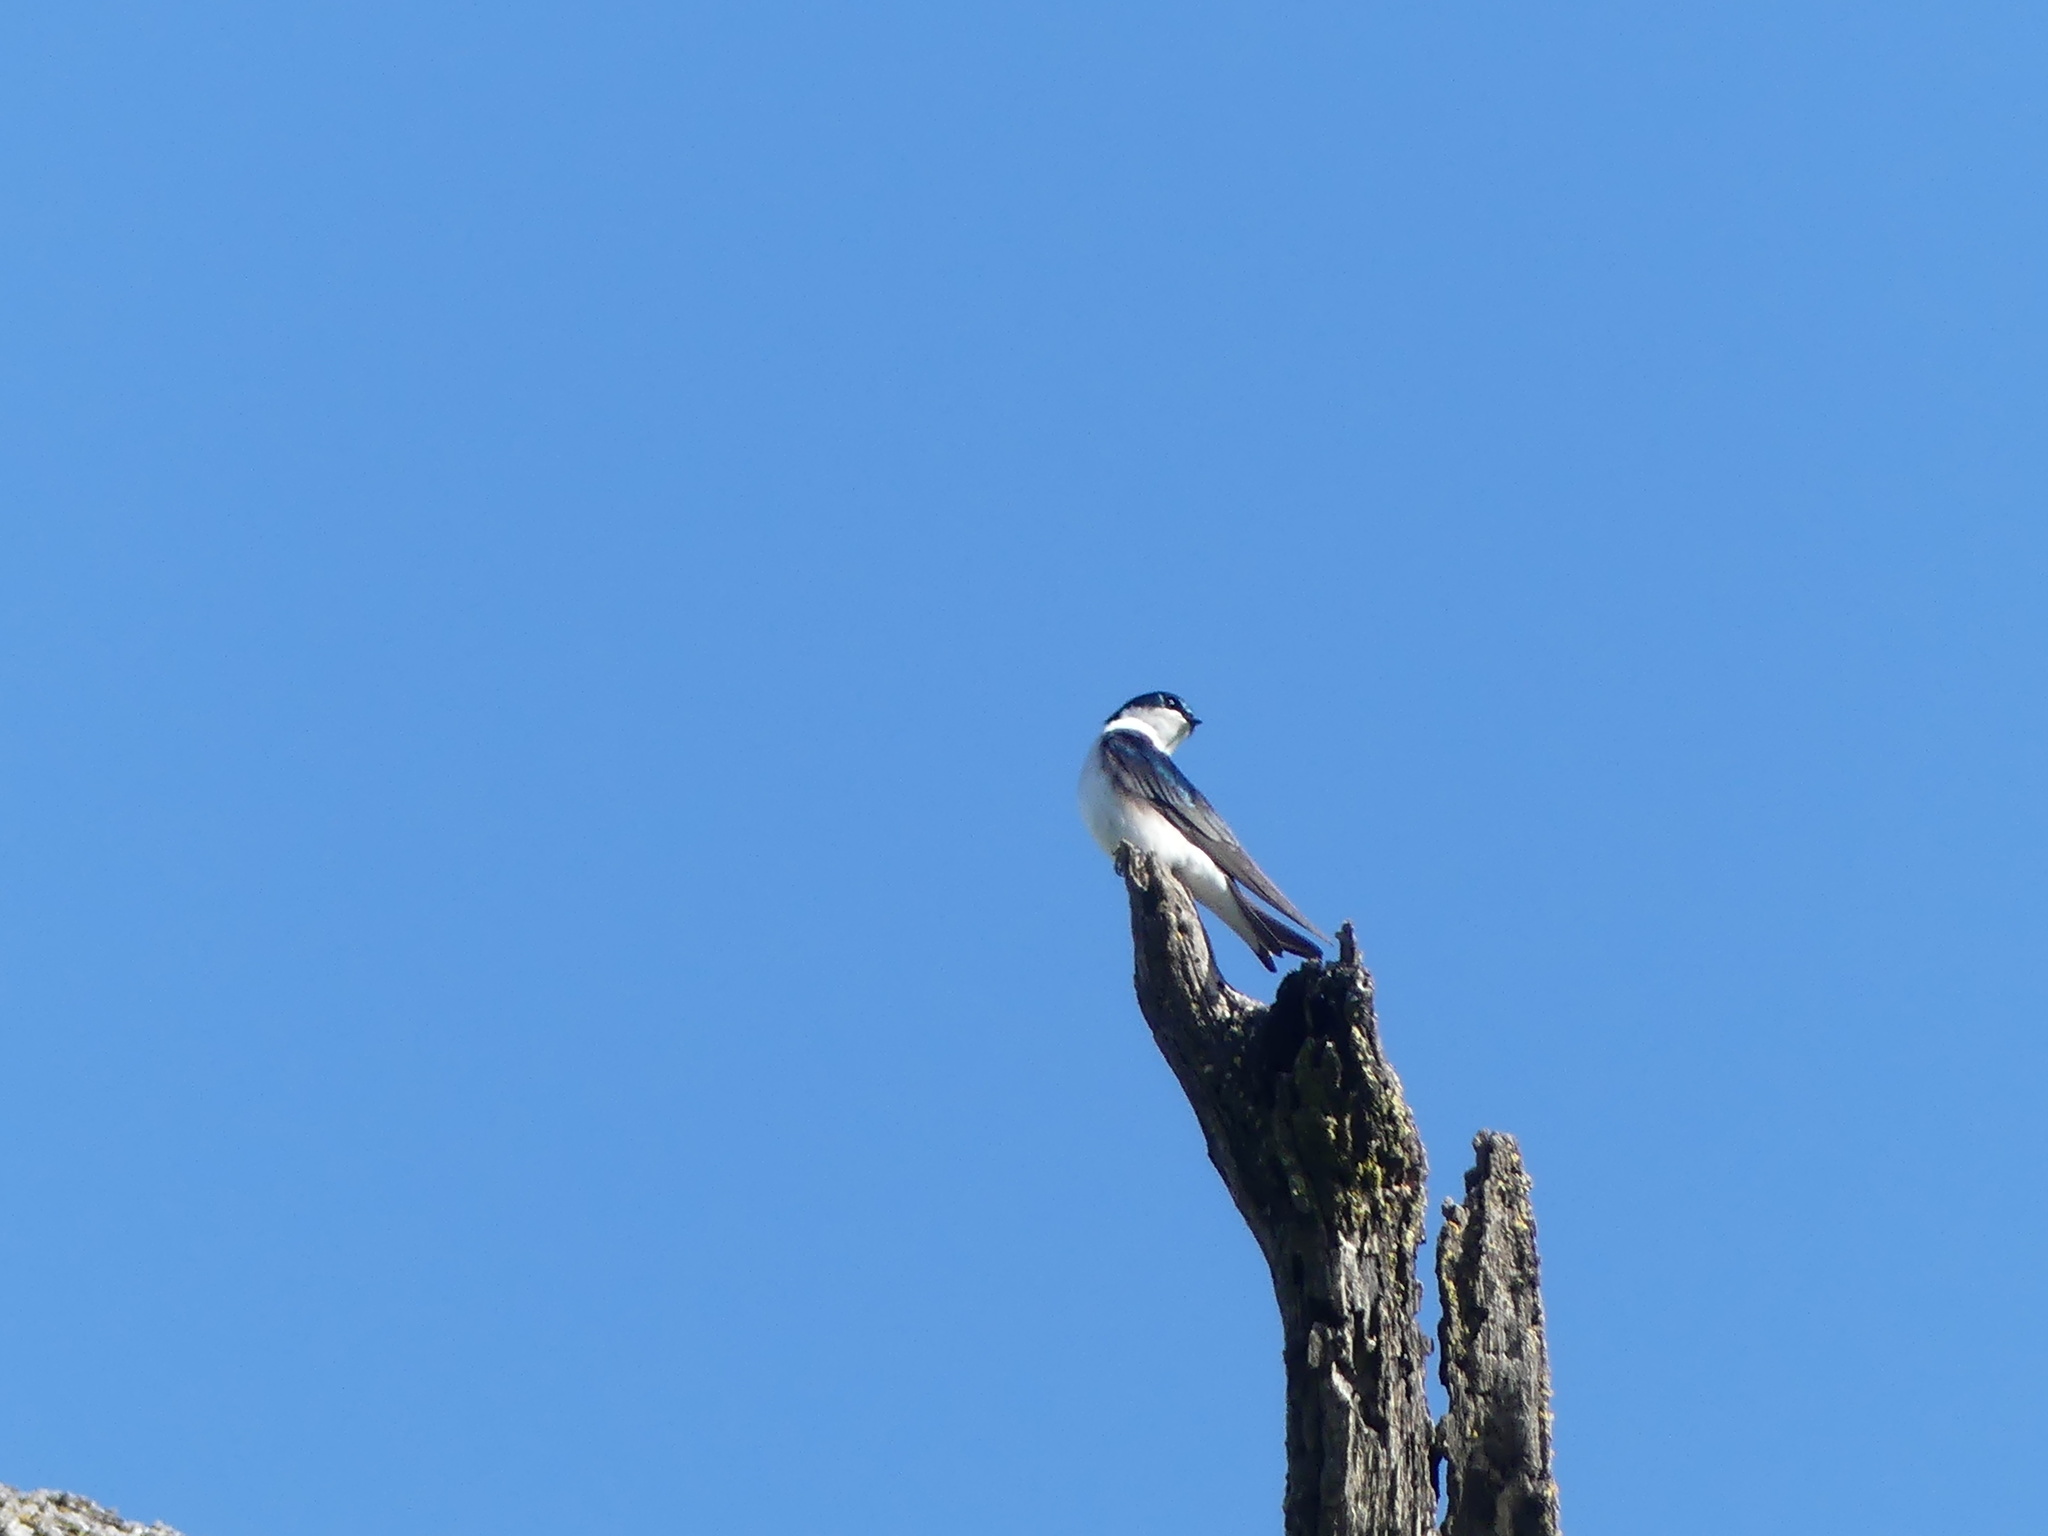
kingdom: Animalia
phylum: Chordata
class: Aves
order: Passeriformes
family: Hirundinidae
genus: Tachycineta
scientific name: Tachycineta bicolor
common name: Tree swallow
